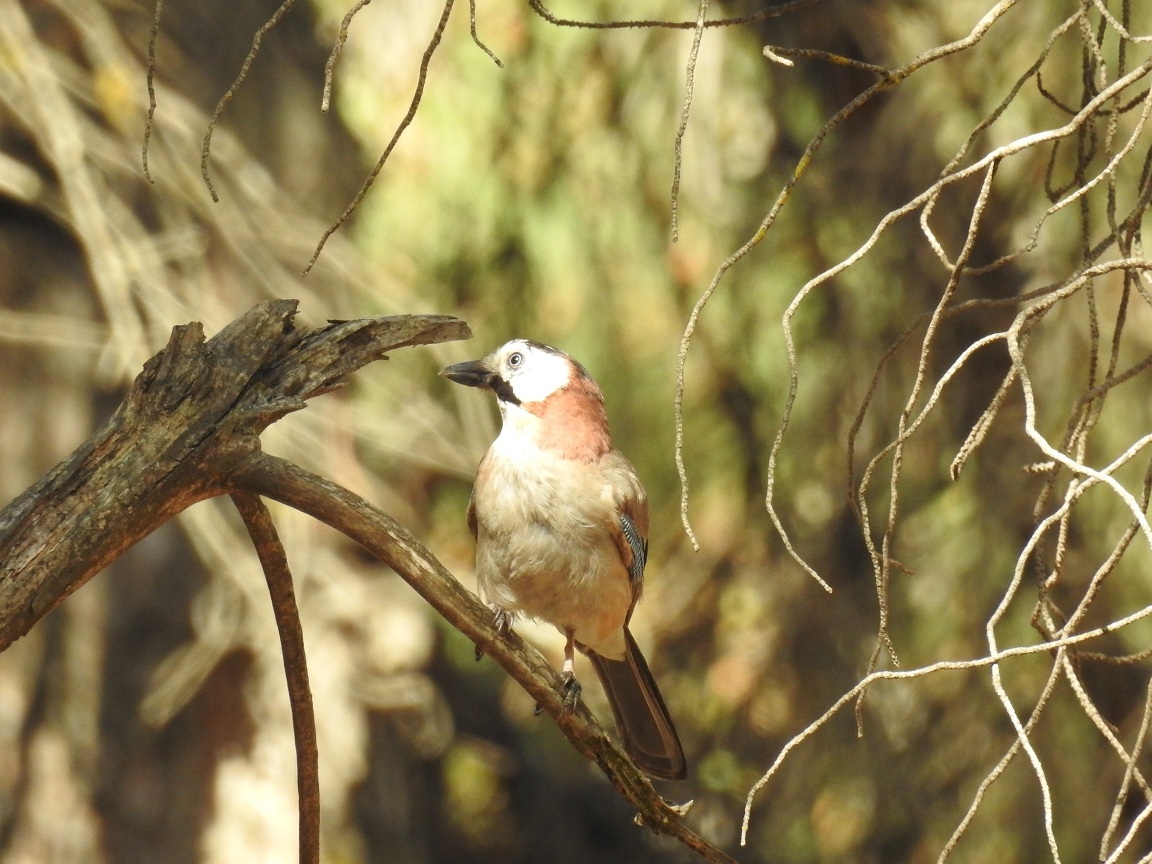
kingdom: Animalia
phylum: Chordata
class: Aves
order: Passeriformes
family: Corvidae
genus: Garrulus
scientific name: Garrulus glandarius
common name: Eurasian jay
